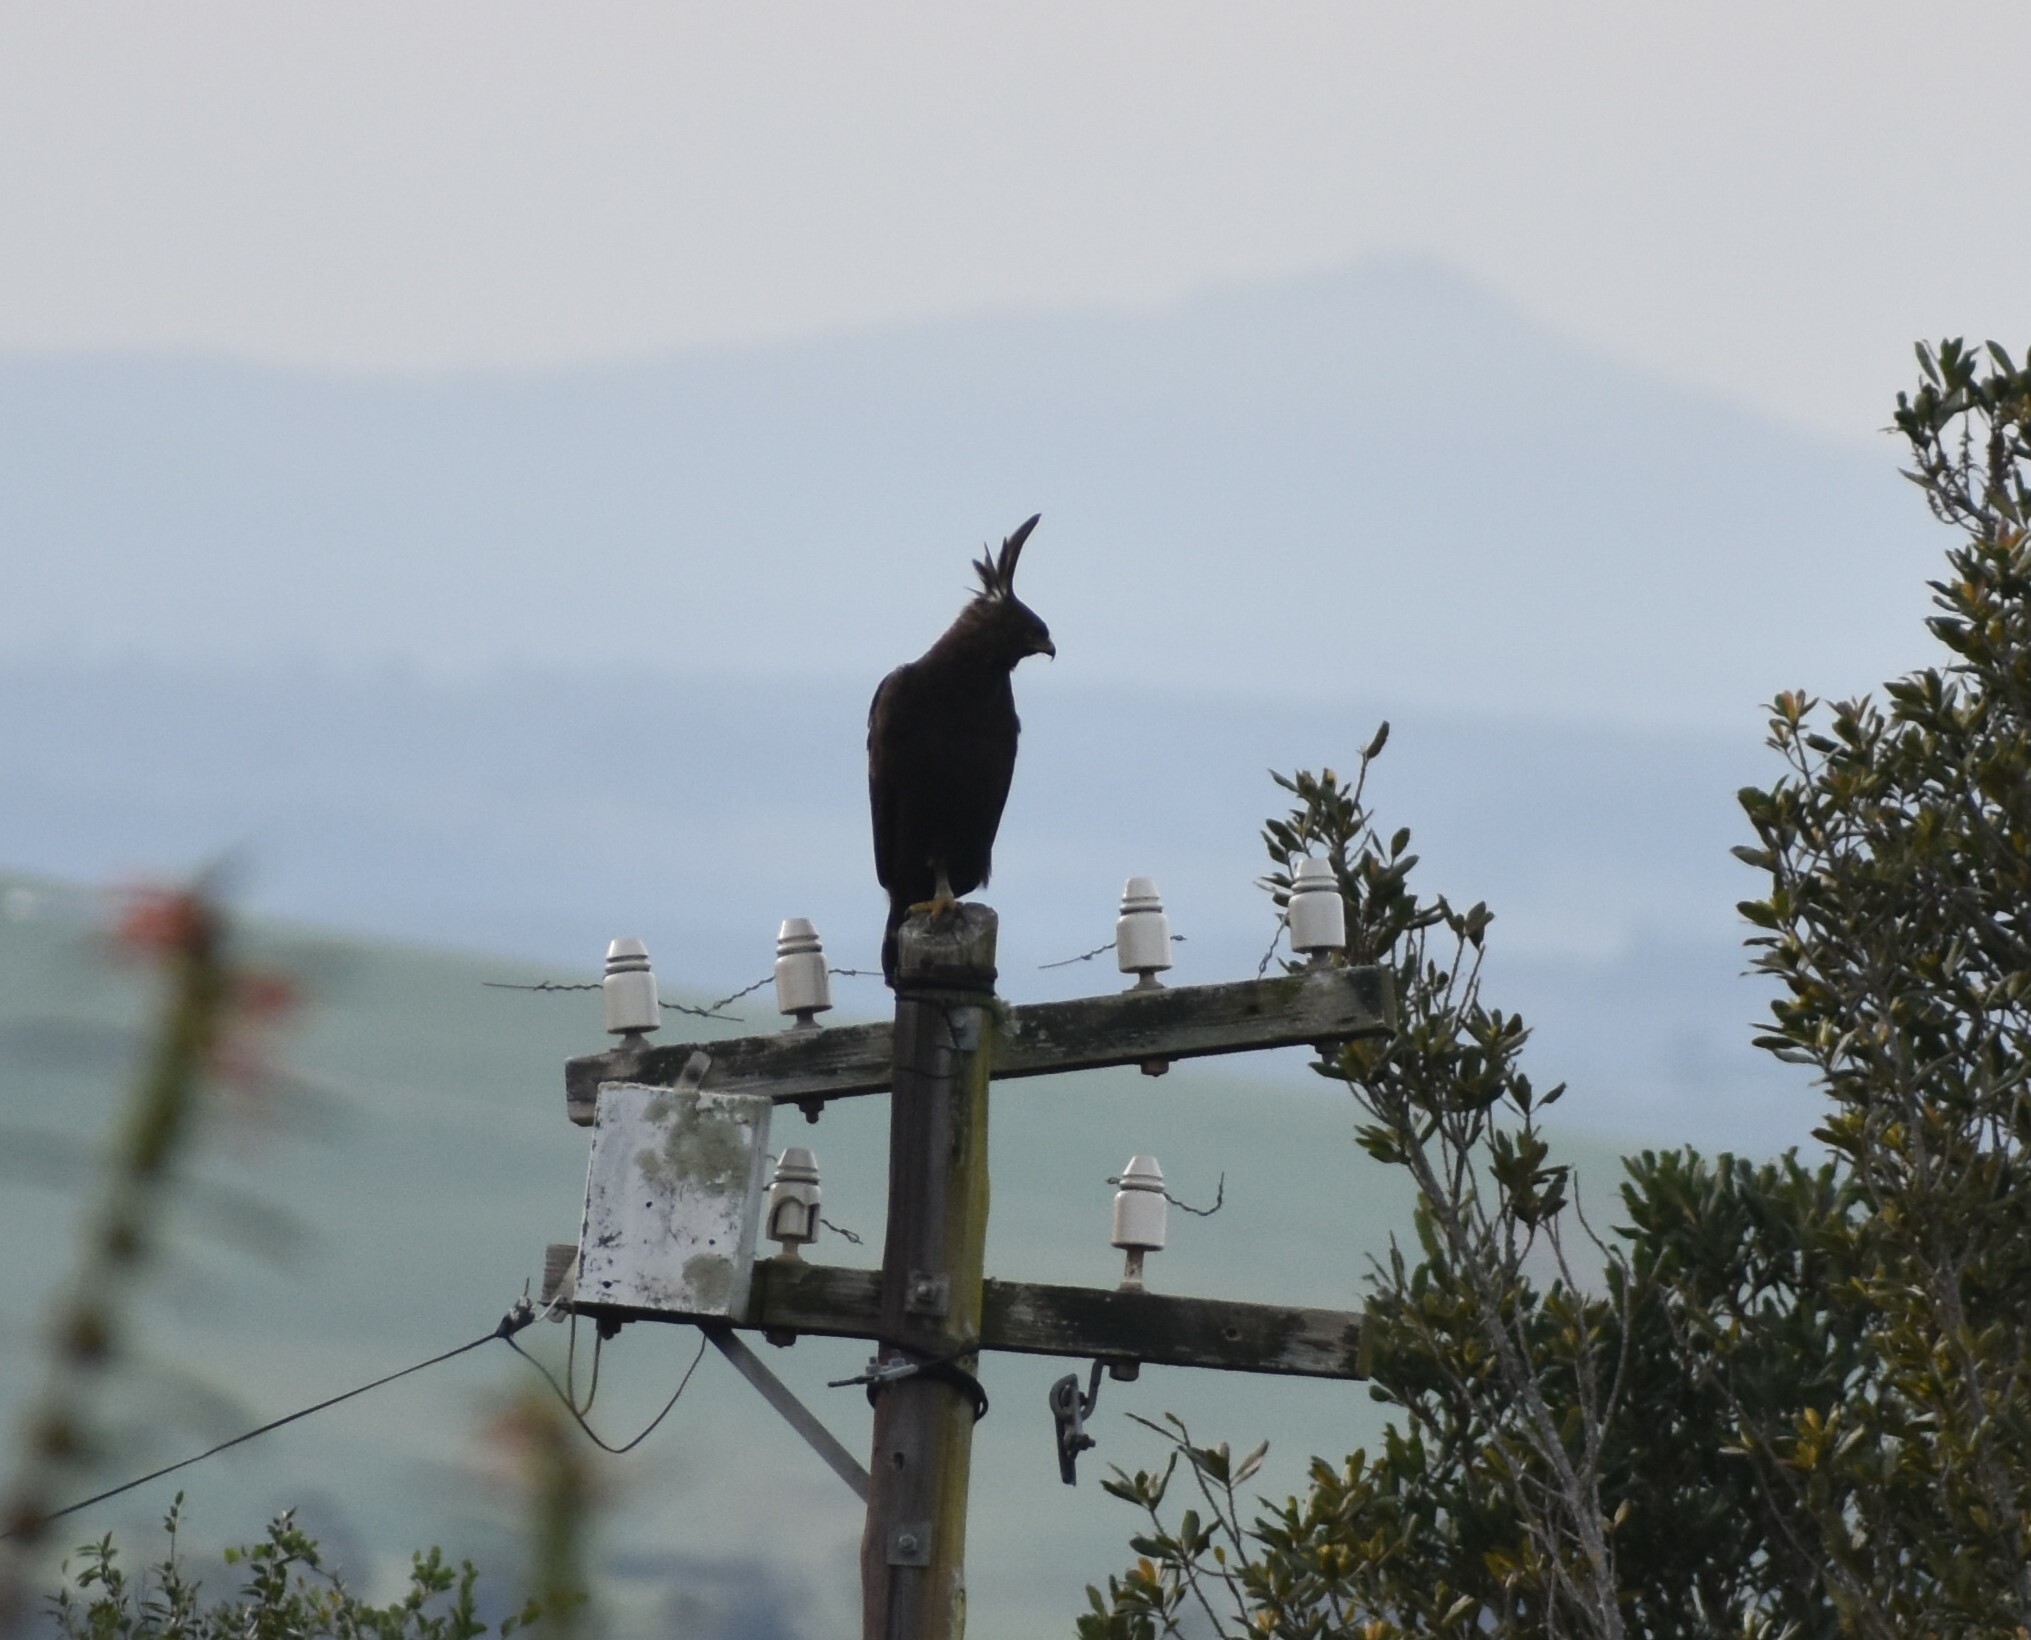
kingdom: Animalia
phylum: Chordata
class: Aves
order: Accipitriformes
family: Accipitridae
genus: Lophaetus
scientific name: Lophaetus occipitalis
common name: Long-crested eagle
